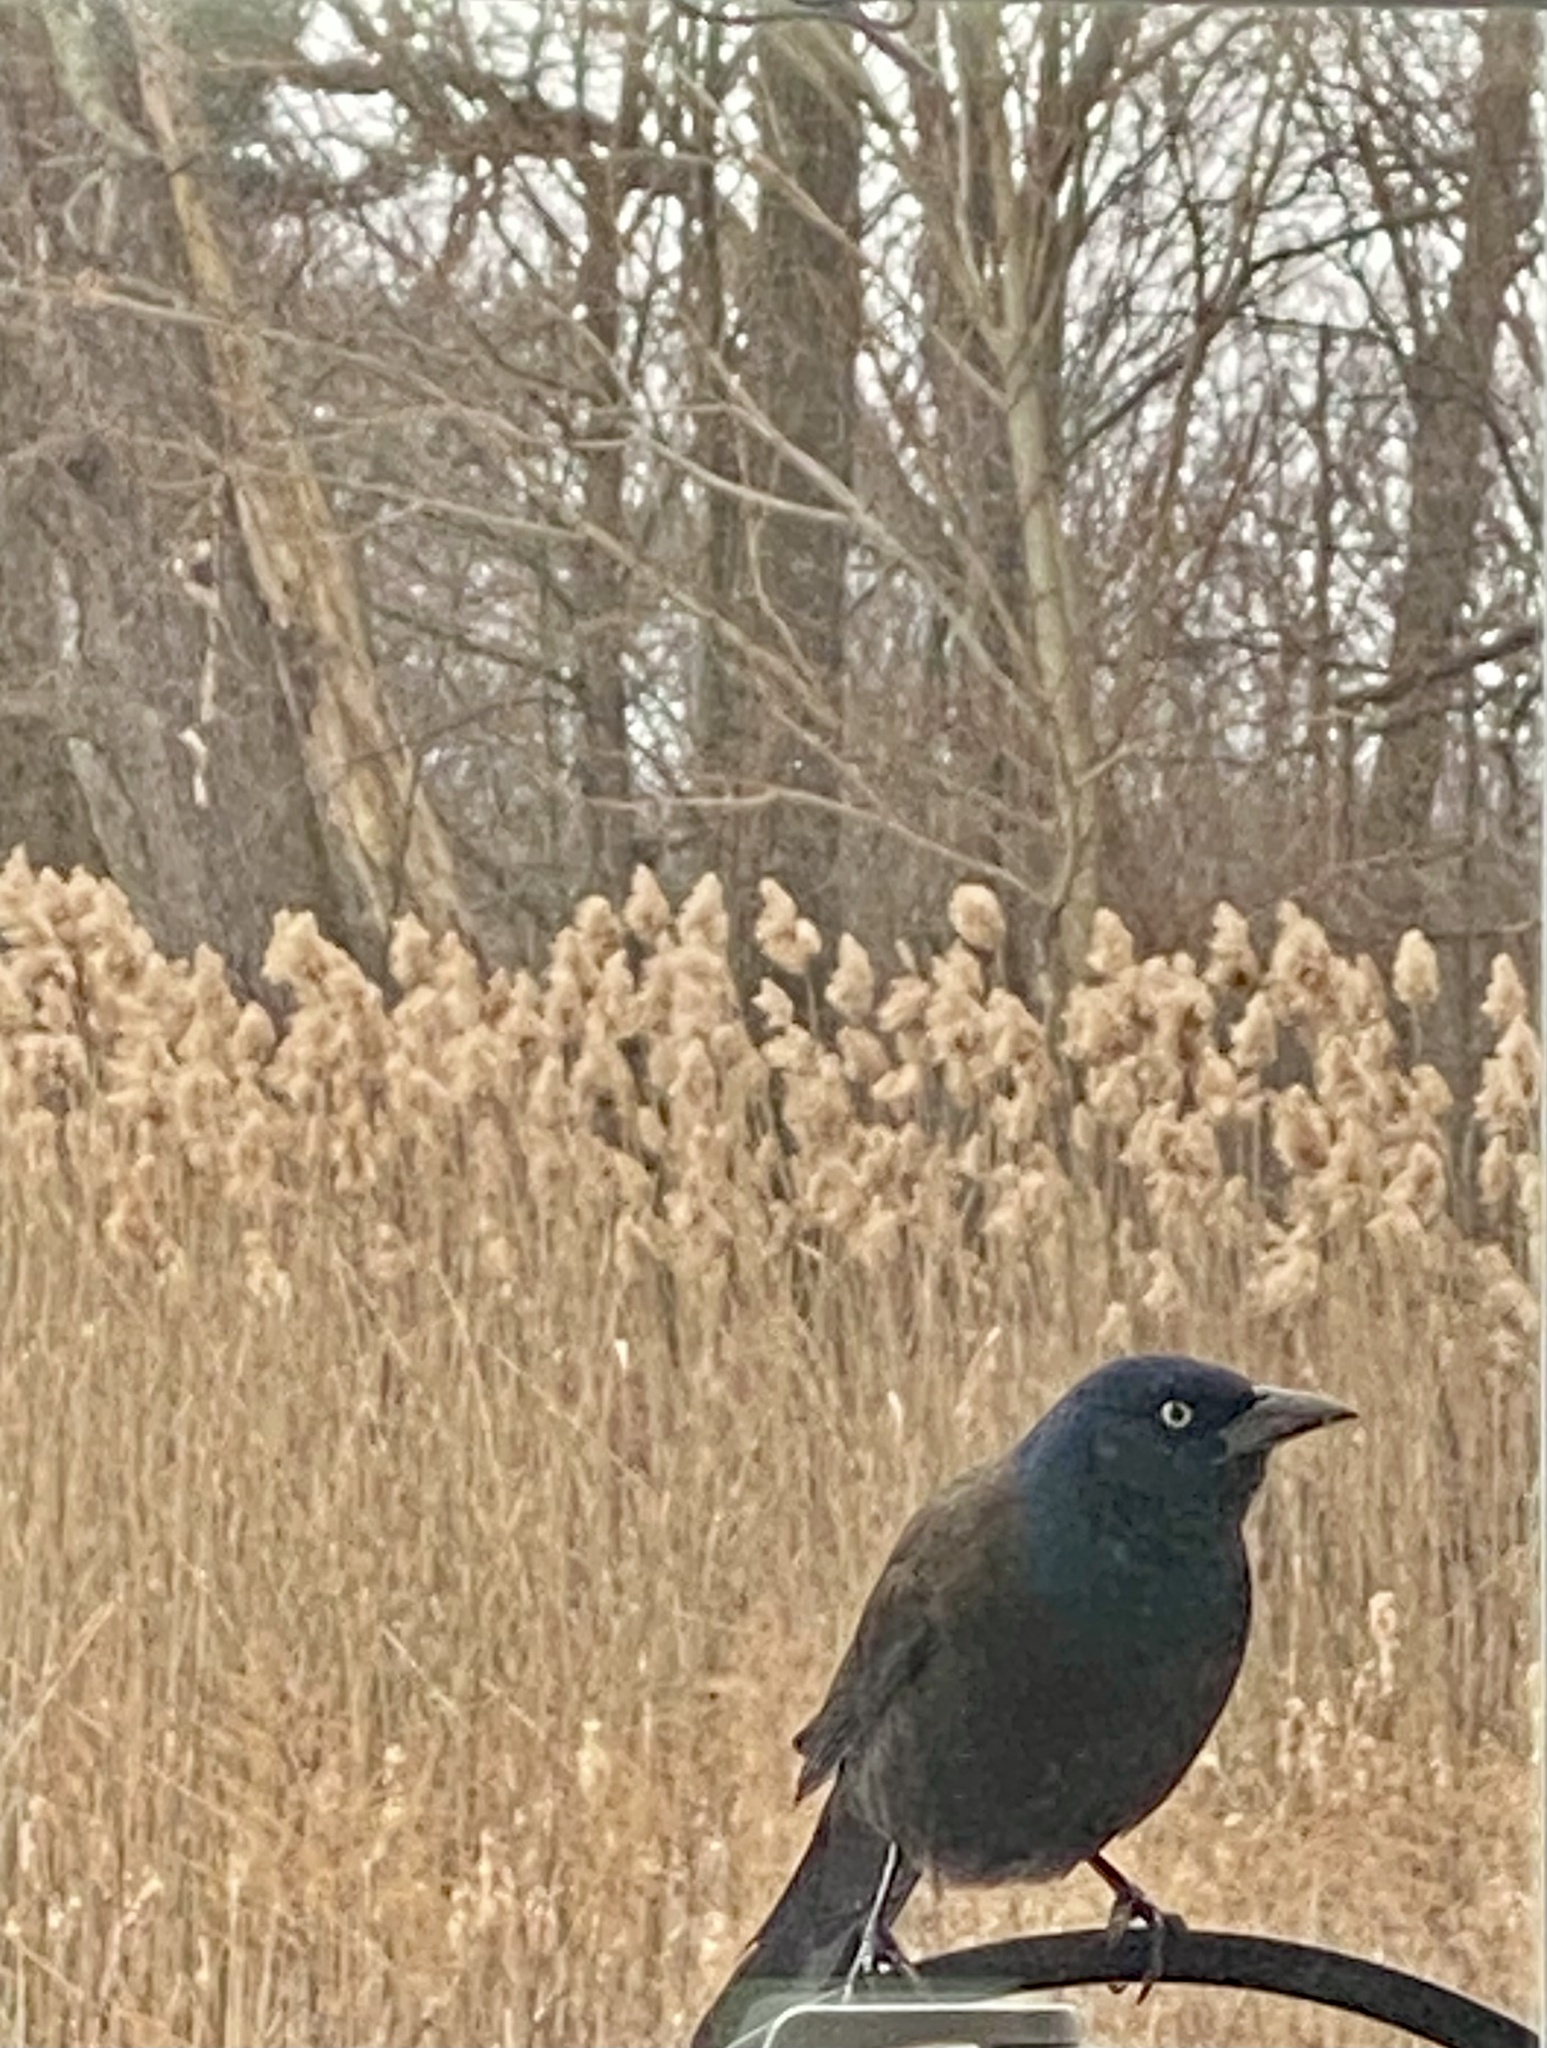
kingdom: Animalia
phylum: Chordata
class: Aves
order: Passeriformes
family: Icteridae
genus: Quiscalus
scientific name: Quiscalus quiscula
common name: Common grackle
